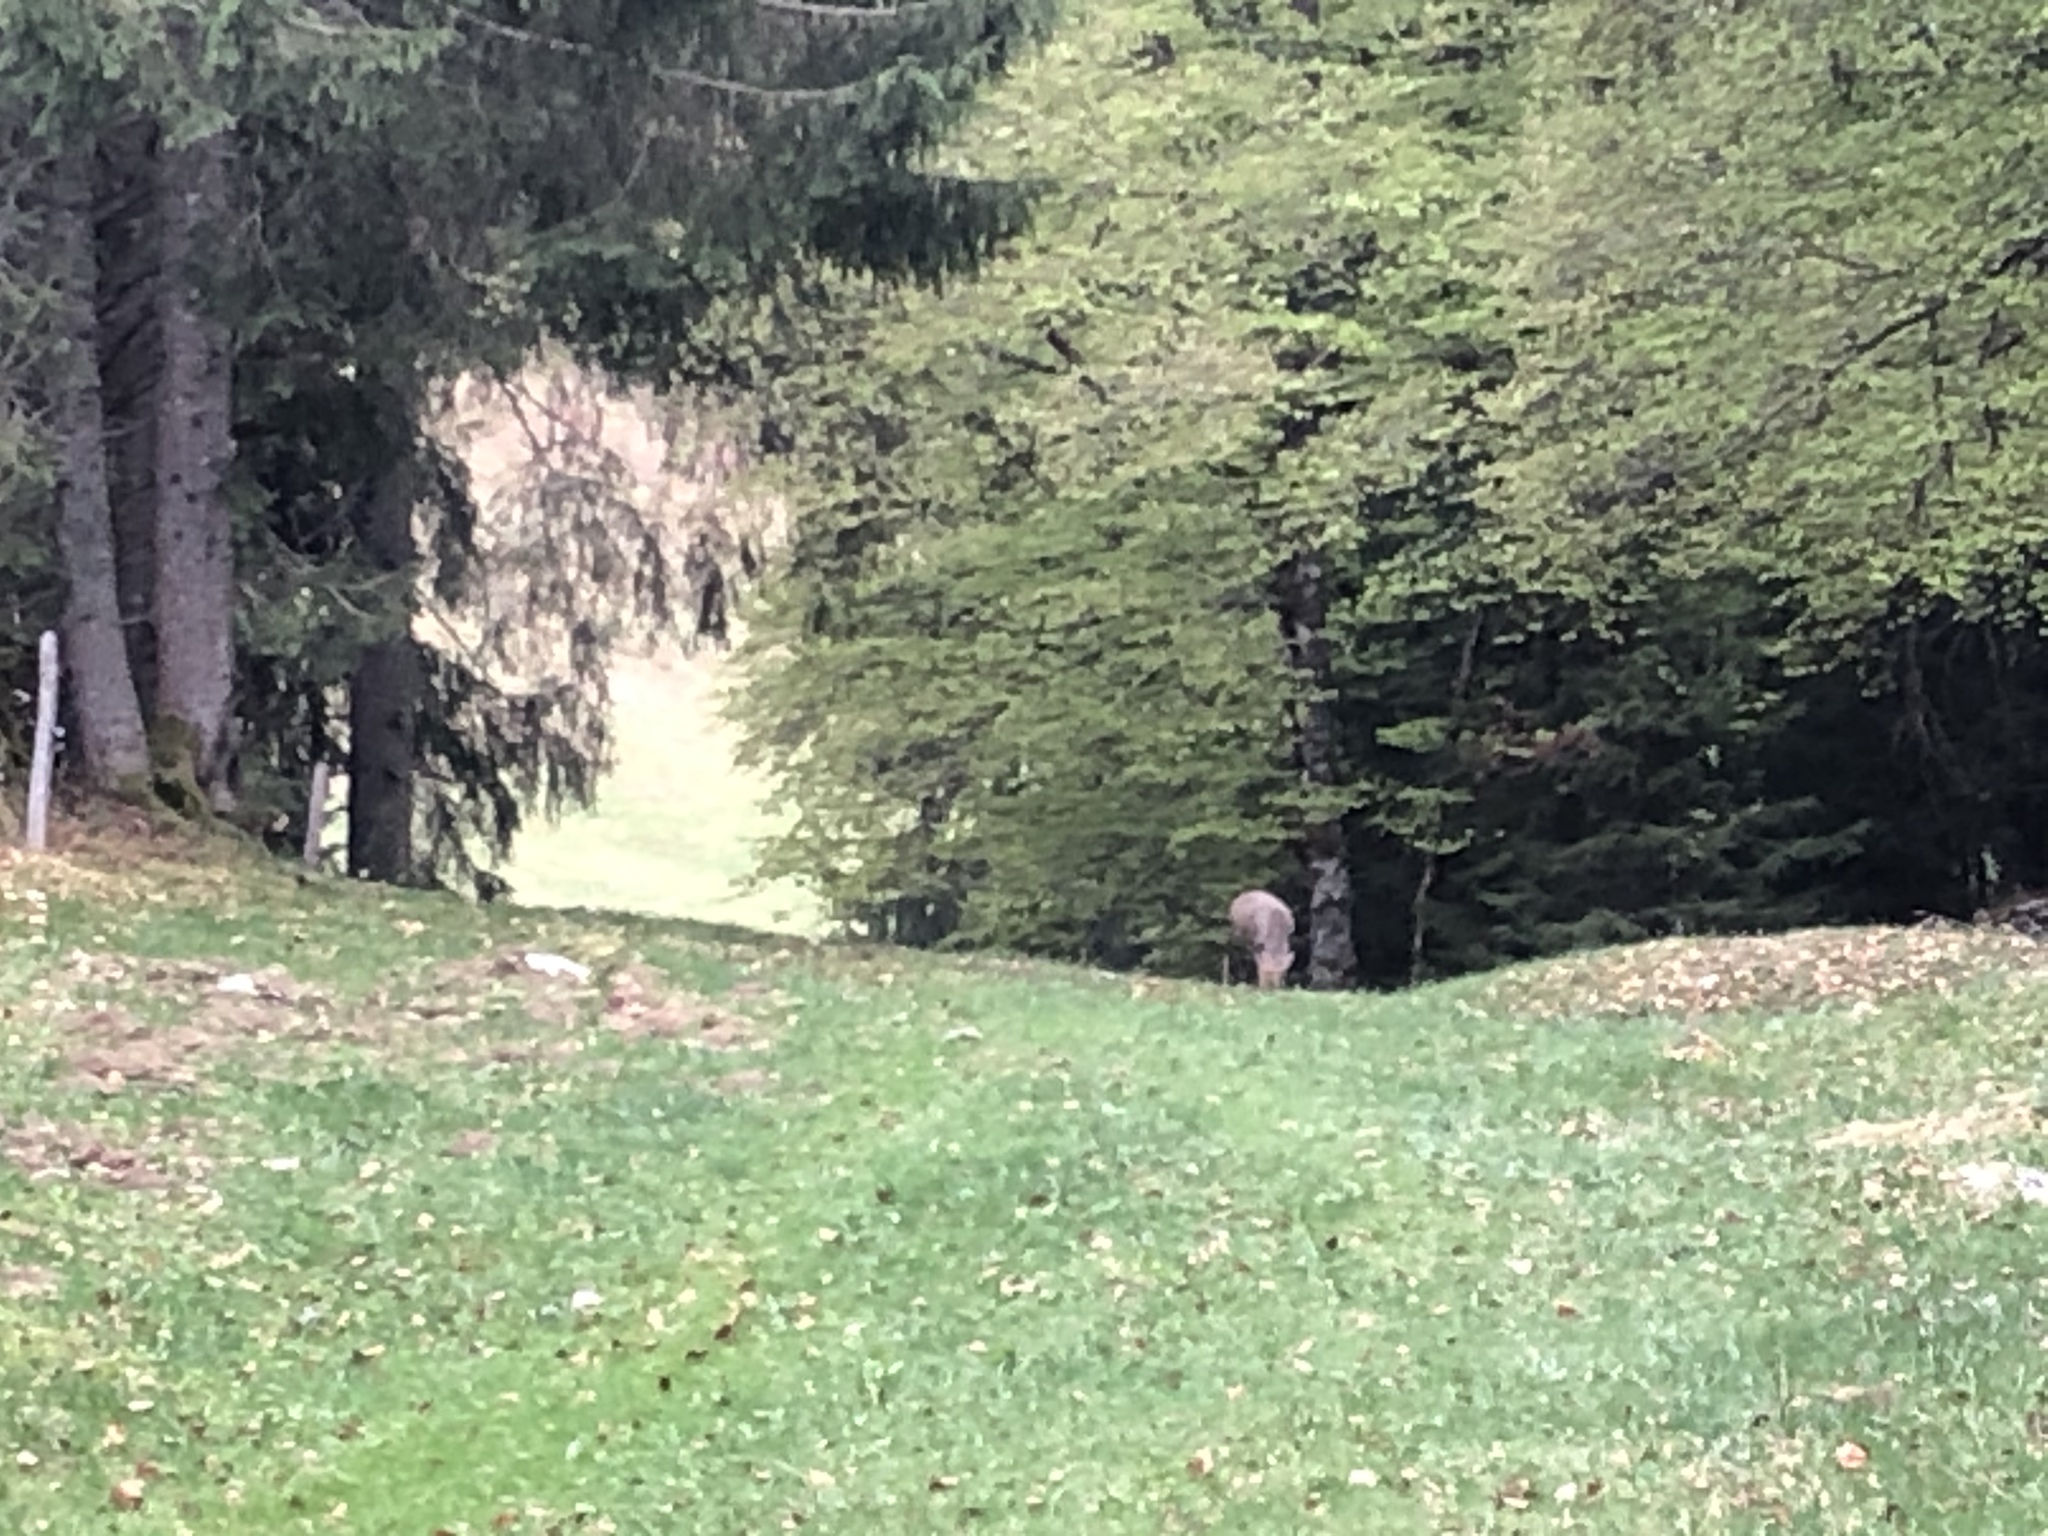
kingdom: Animalia
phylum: Chordata
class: Mammalia
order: Artiodactyla
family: Cervidae
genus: Capreolus
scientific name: Capreolus capreolus
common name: Western roe deer
